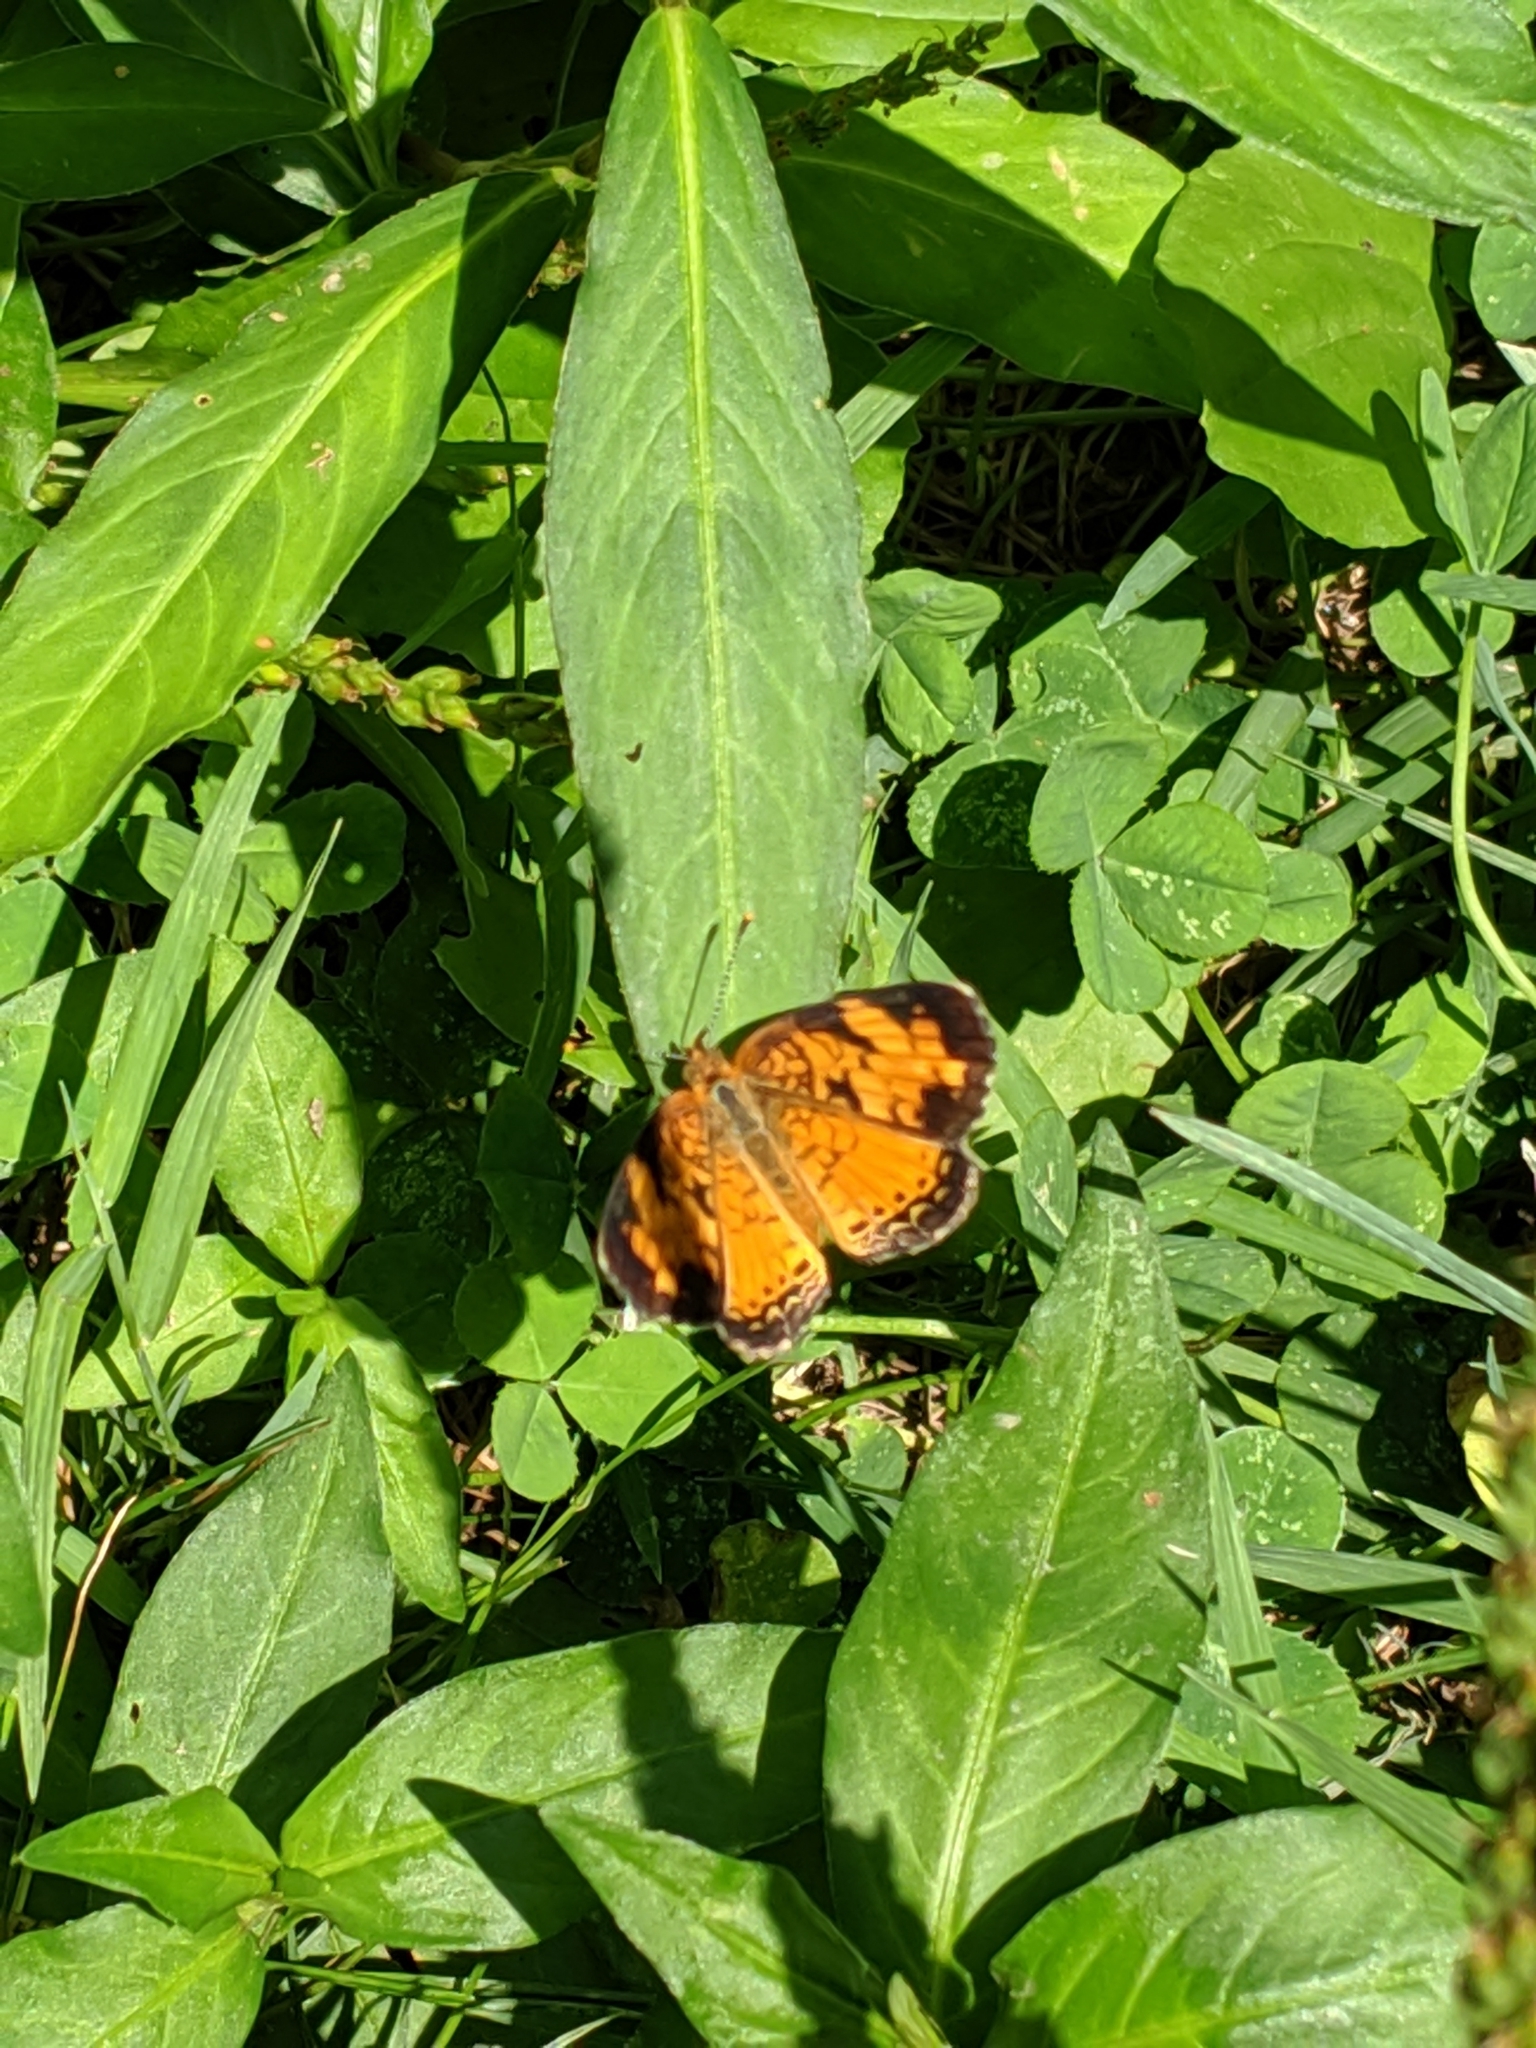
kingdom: Animalia
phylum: Arthropoda
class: Insecta
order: Lepidoptera
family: Nymphalidae
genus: Phyciodes
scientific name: Phyciodes tharos
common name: Pearl crescent
